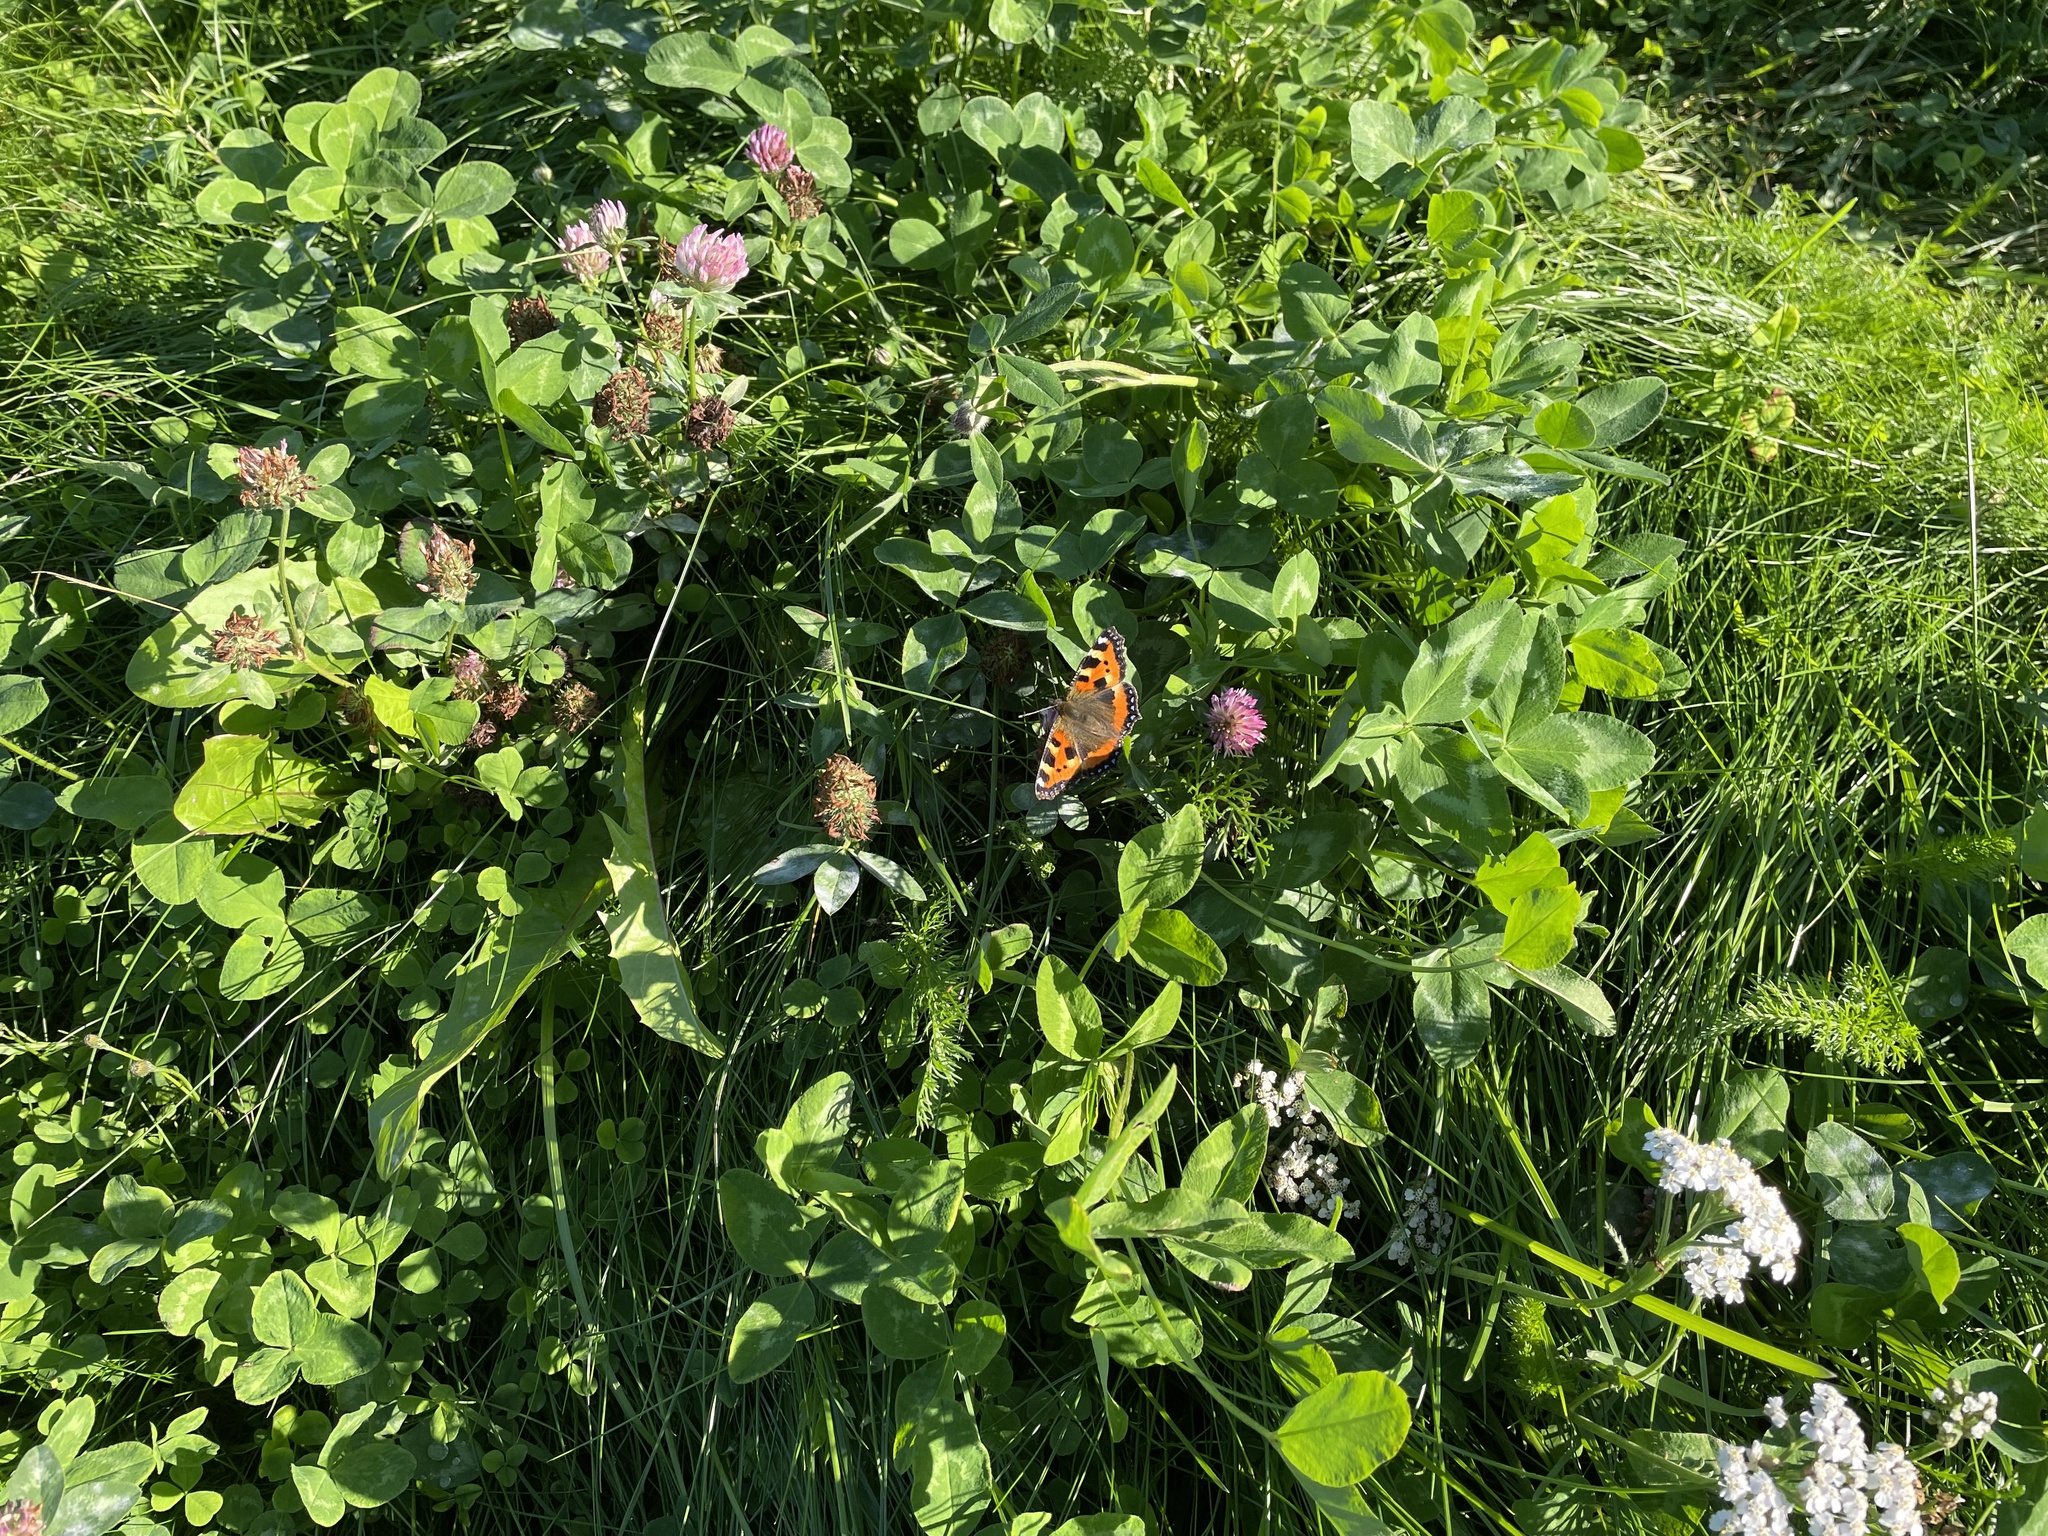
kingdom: Animalia
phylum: Arthropoda
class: Insecta
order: Lepidoptera
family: Nymphalidae
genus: Aglais
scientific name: Aglais urticae
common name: Small tortoiseshell
